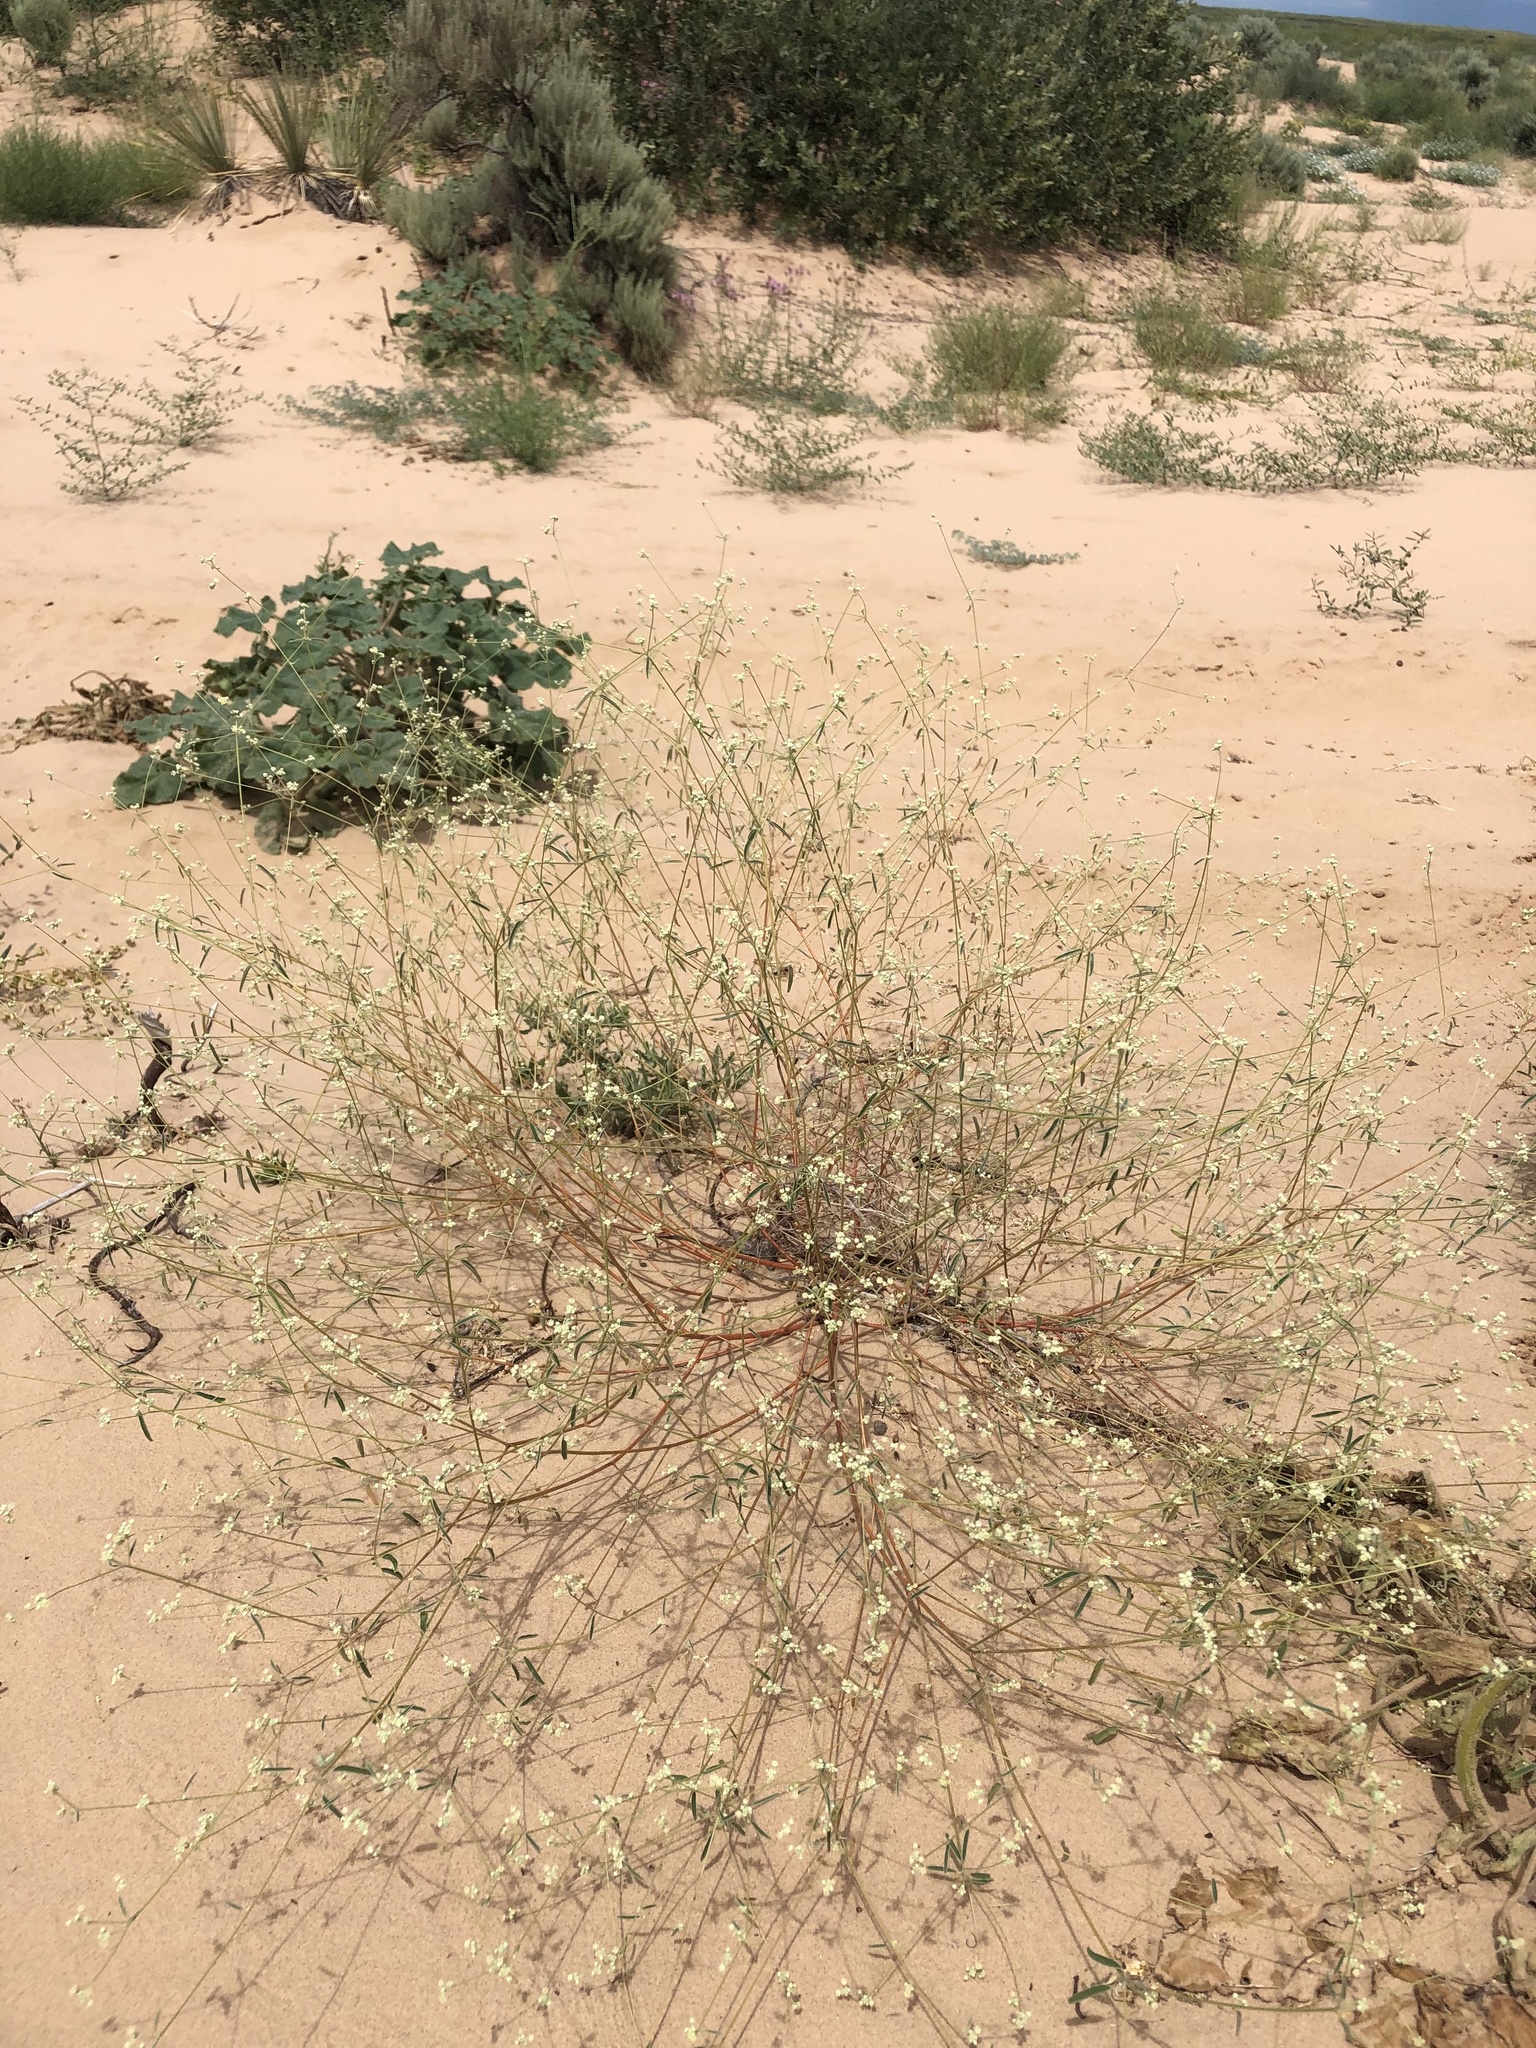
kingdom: Plantae
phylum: Tracheophyta
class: Magnoliopsida
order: Malpighiales
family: Euphorbiaceae
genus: Croton
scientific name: Croton texensis
